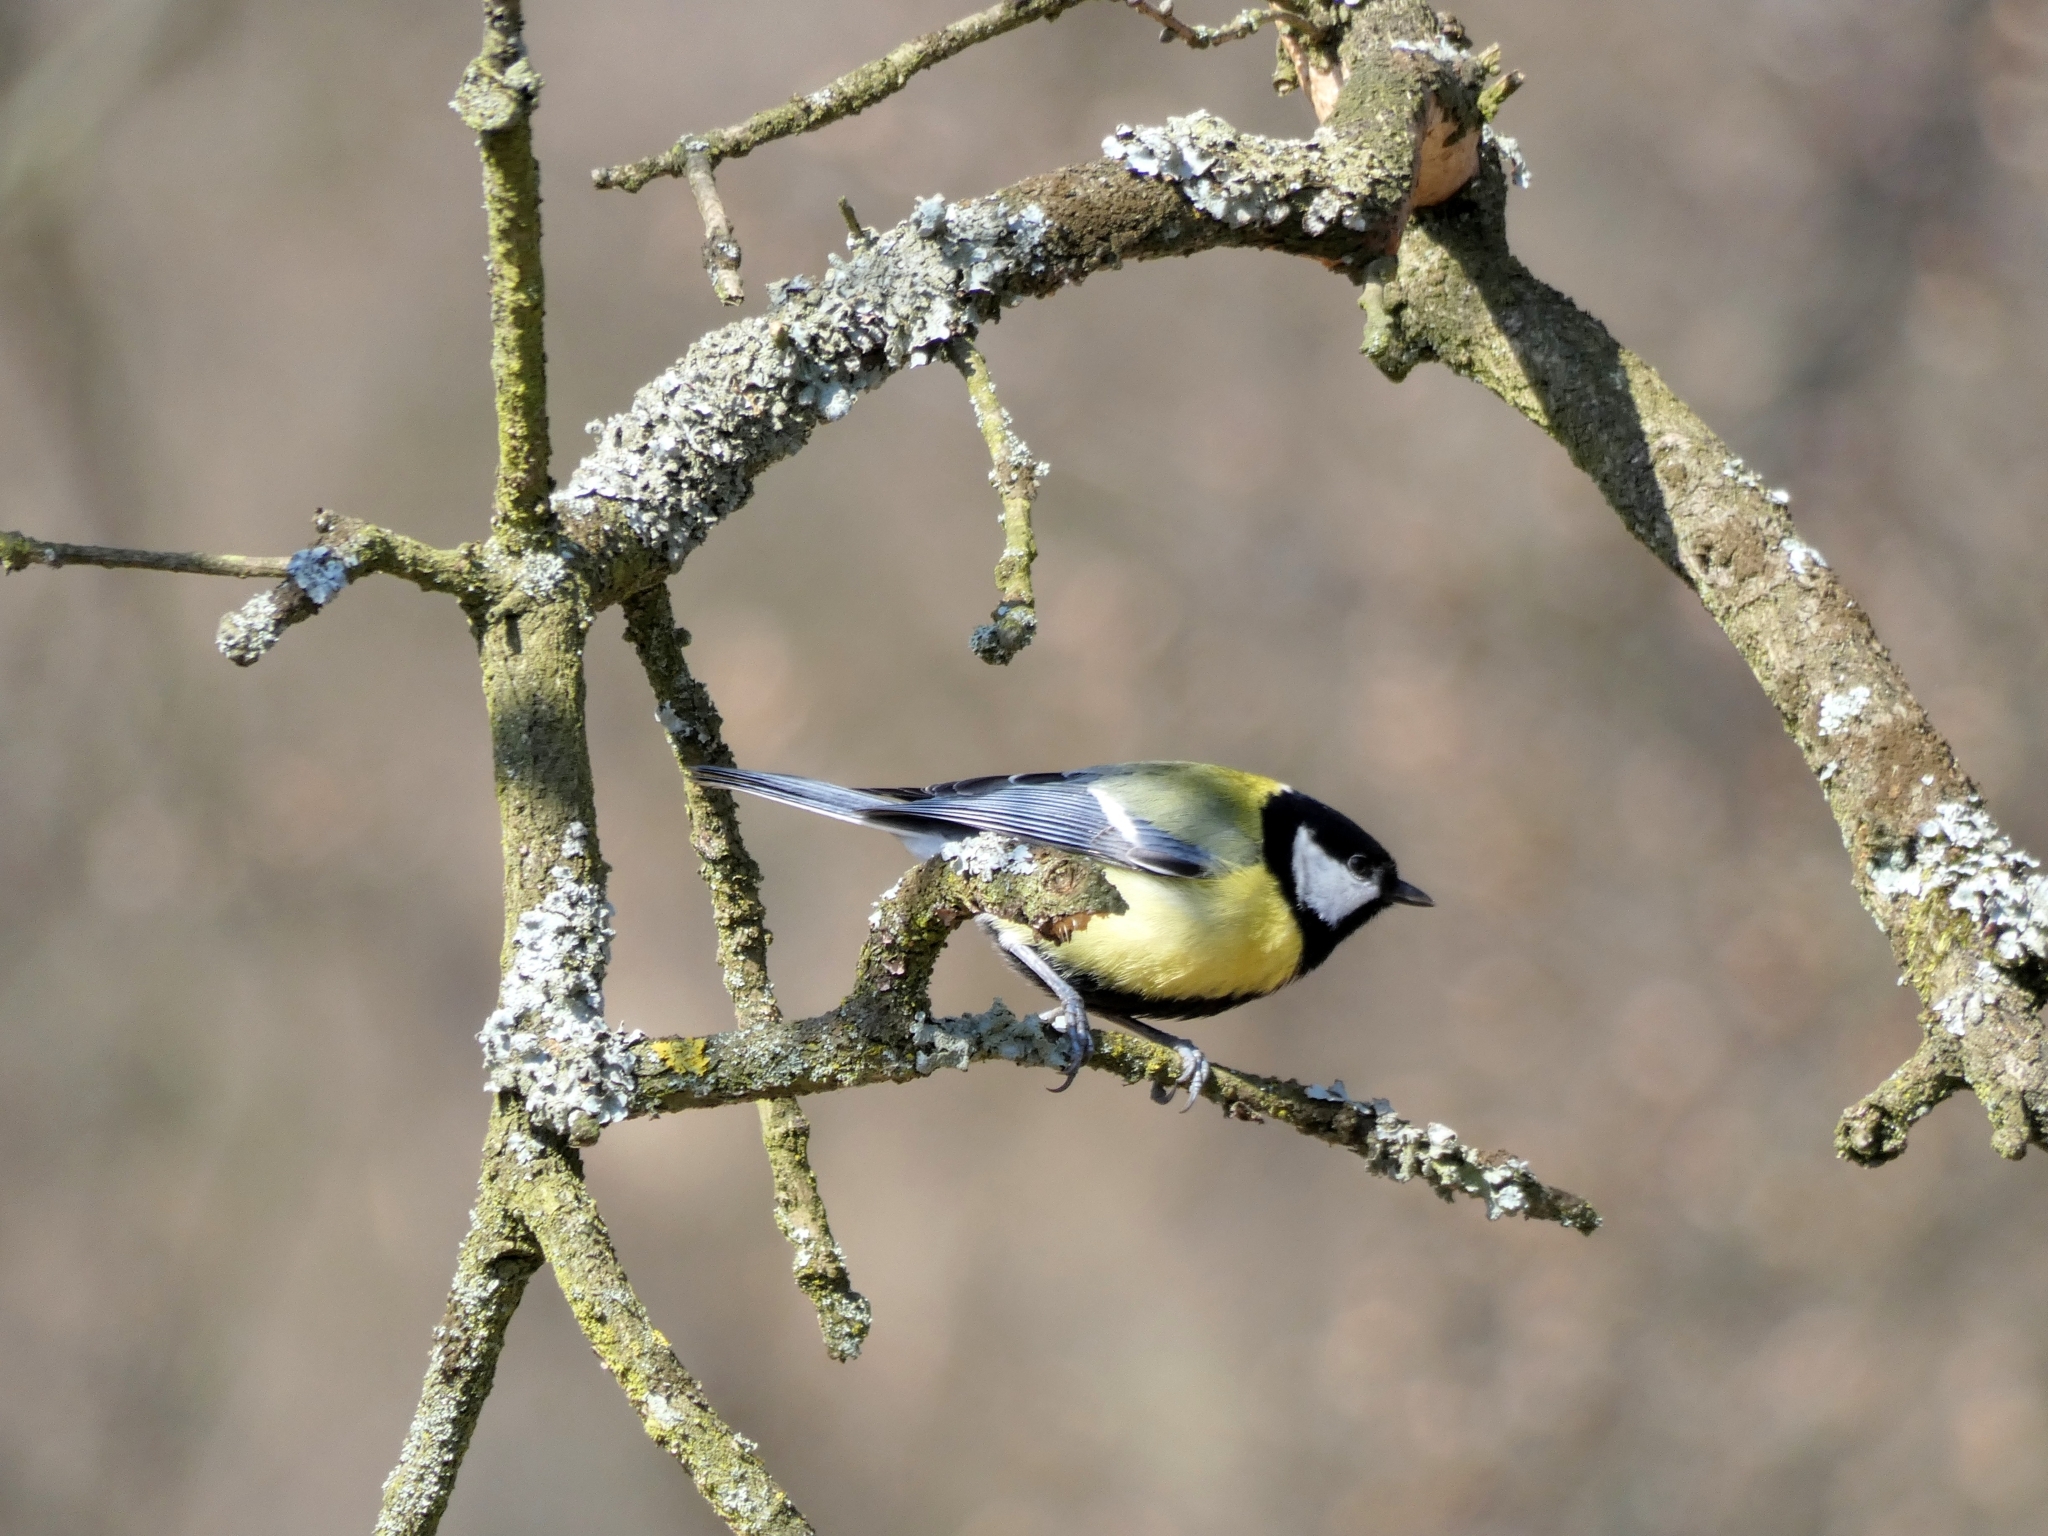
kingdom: Animalia
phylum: Chordata
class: Aves
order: Passeriformes
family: Paridae
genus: Parus
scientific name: Parus major
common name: Great tit
